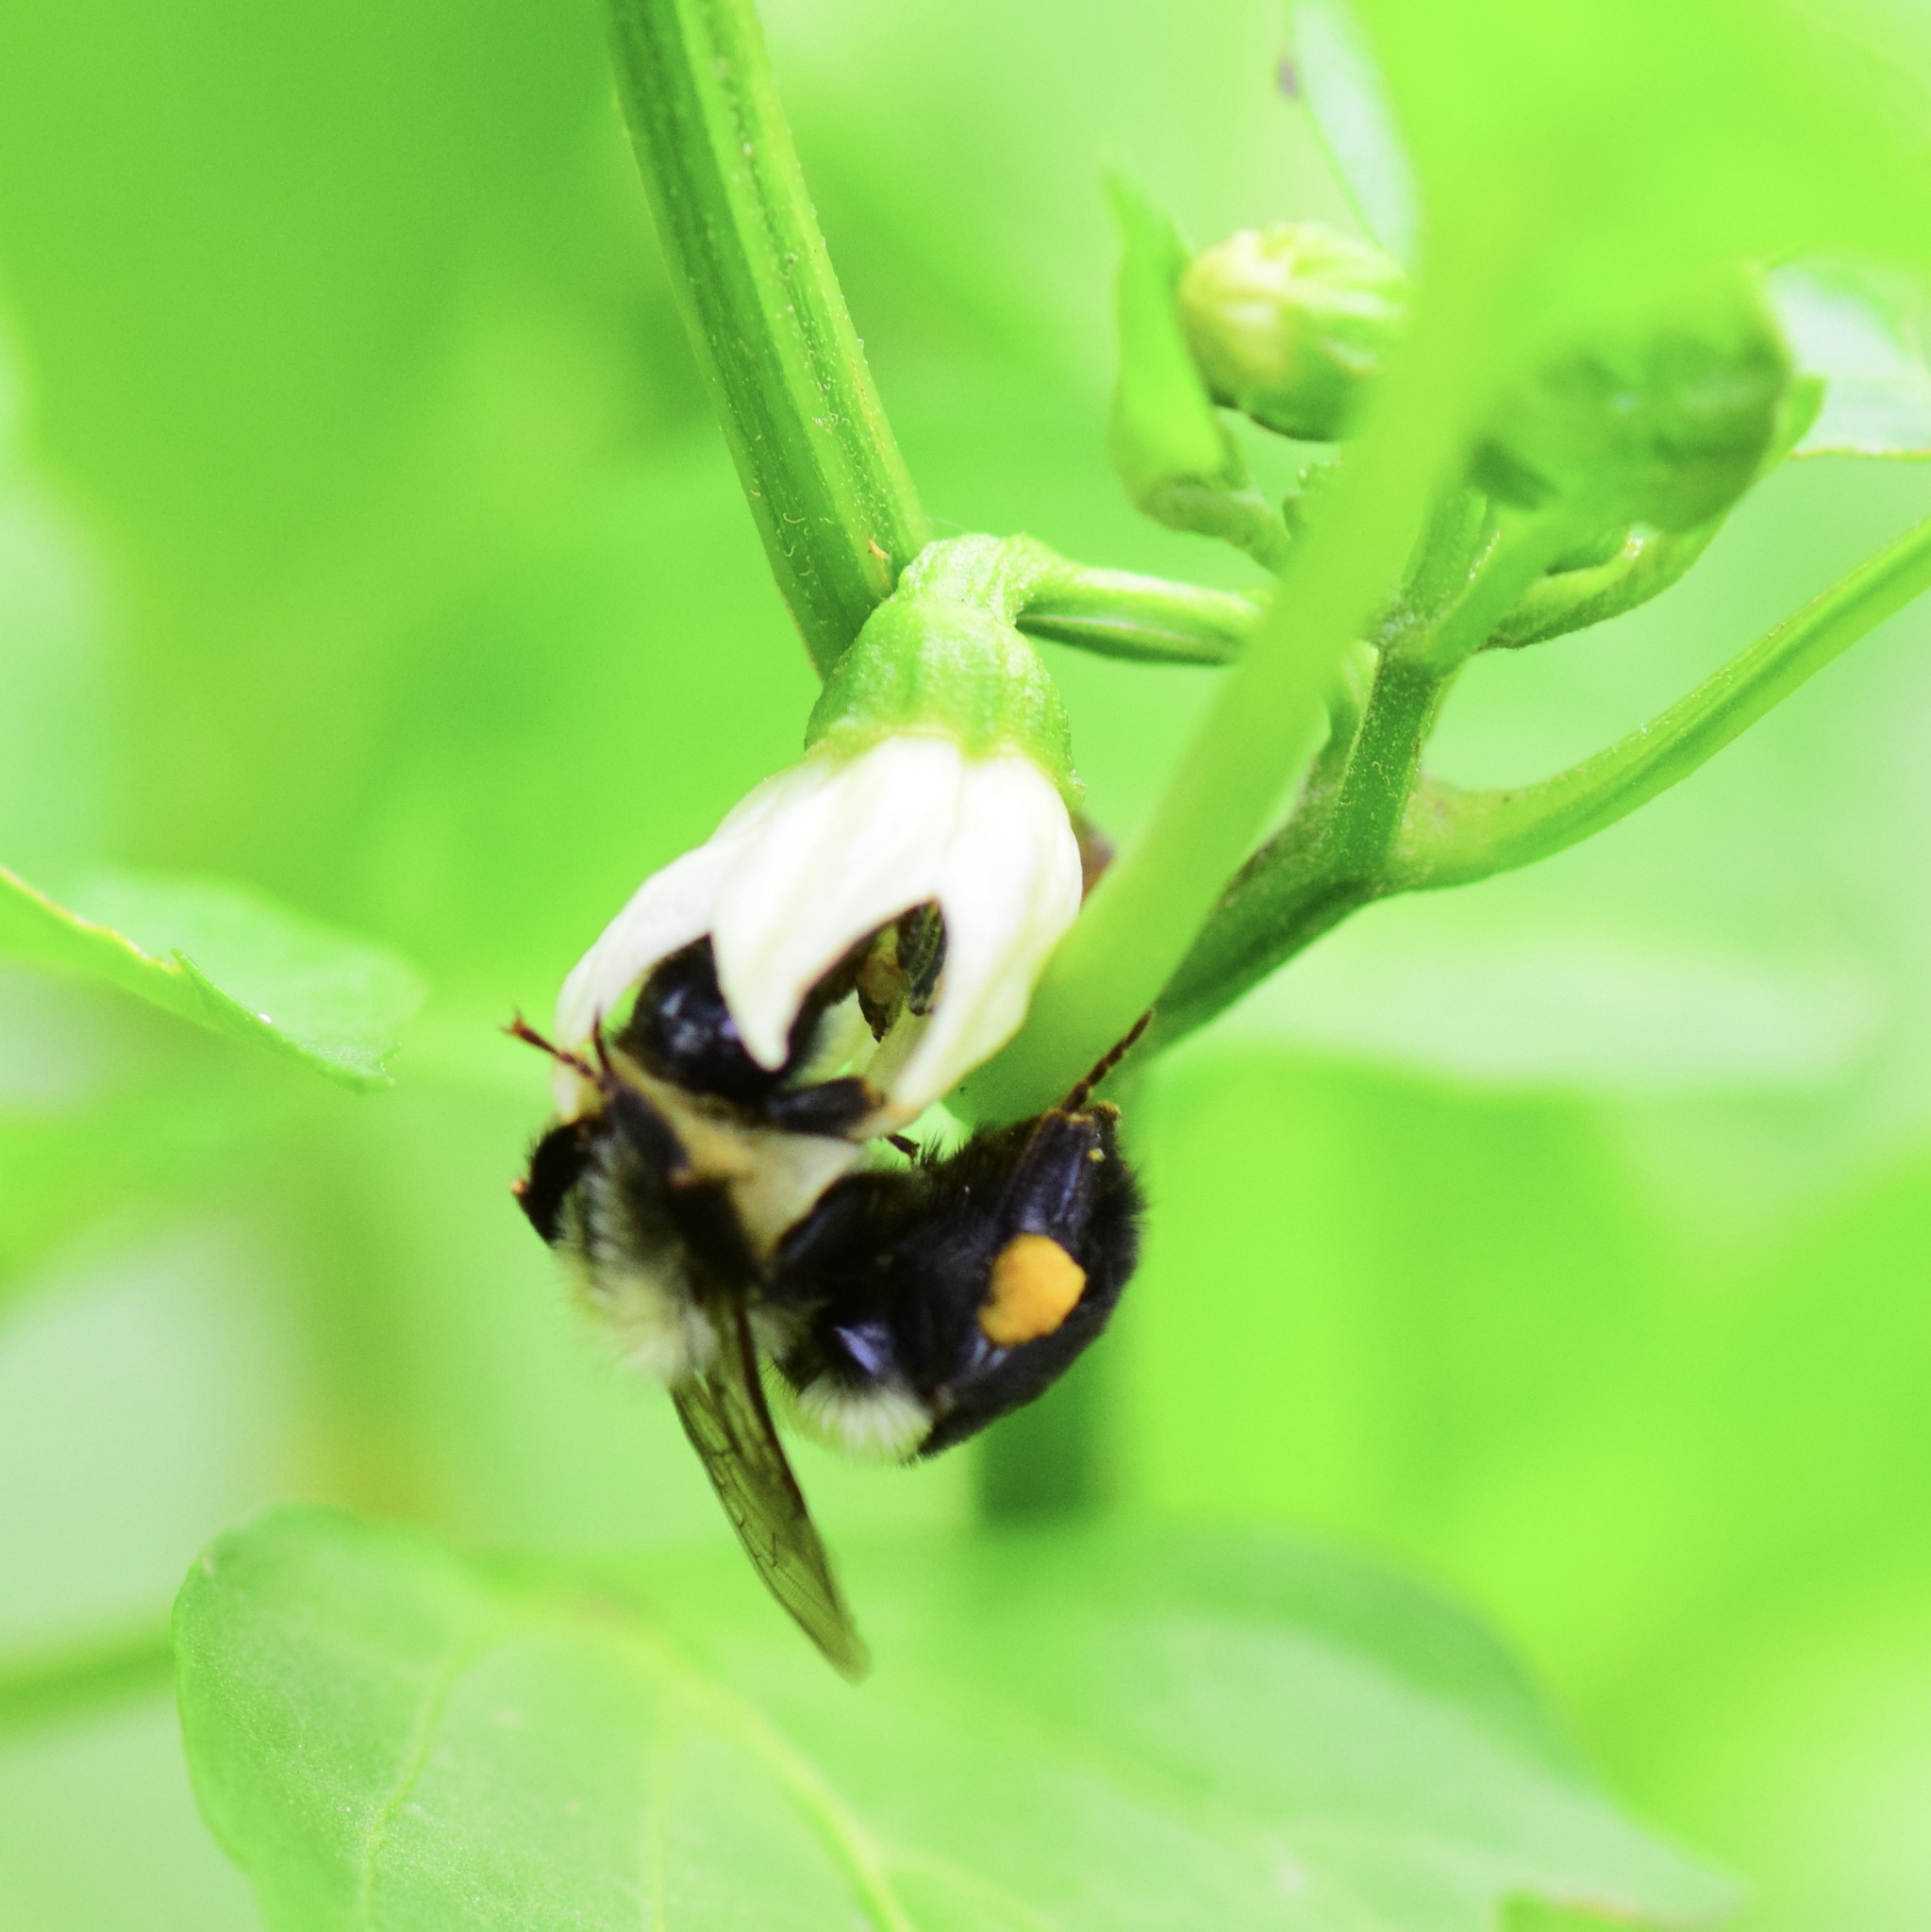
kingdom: Animalia
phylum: Arthropoda
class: Insecta
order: Hymenoptera
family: Apidae
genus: Bombus
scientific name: Bombus impatiens
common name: Common eastern bumble bee
